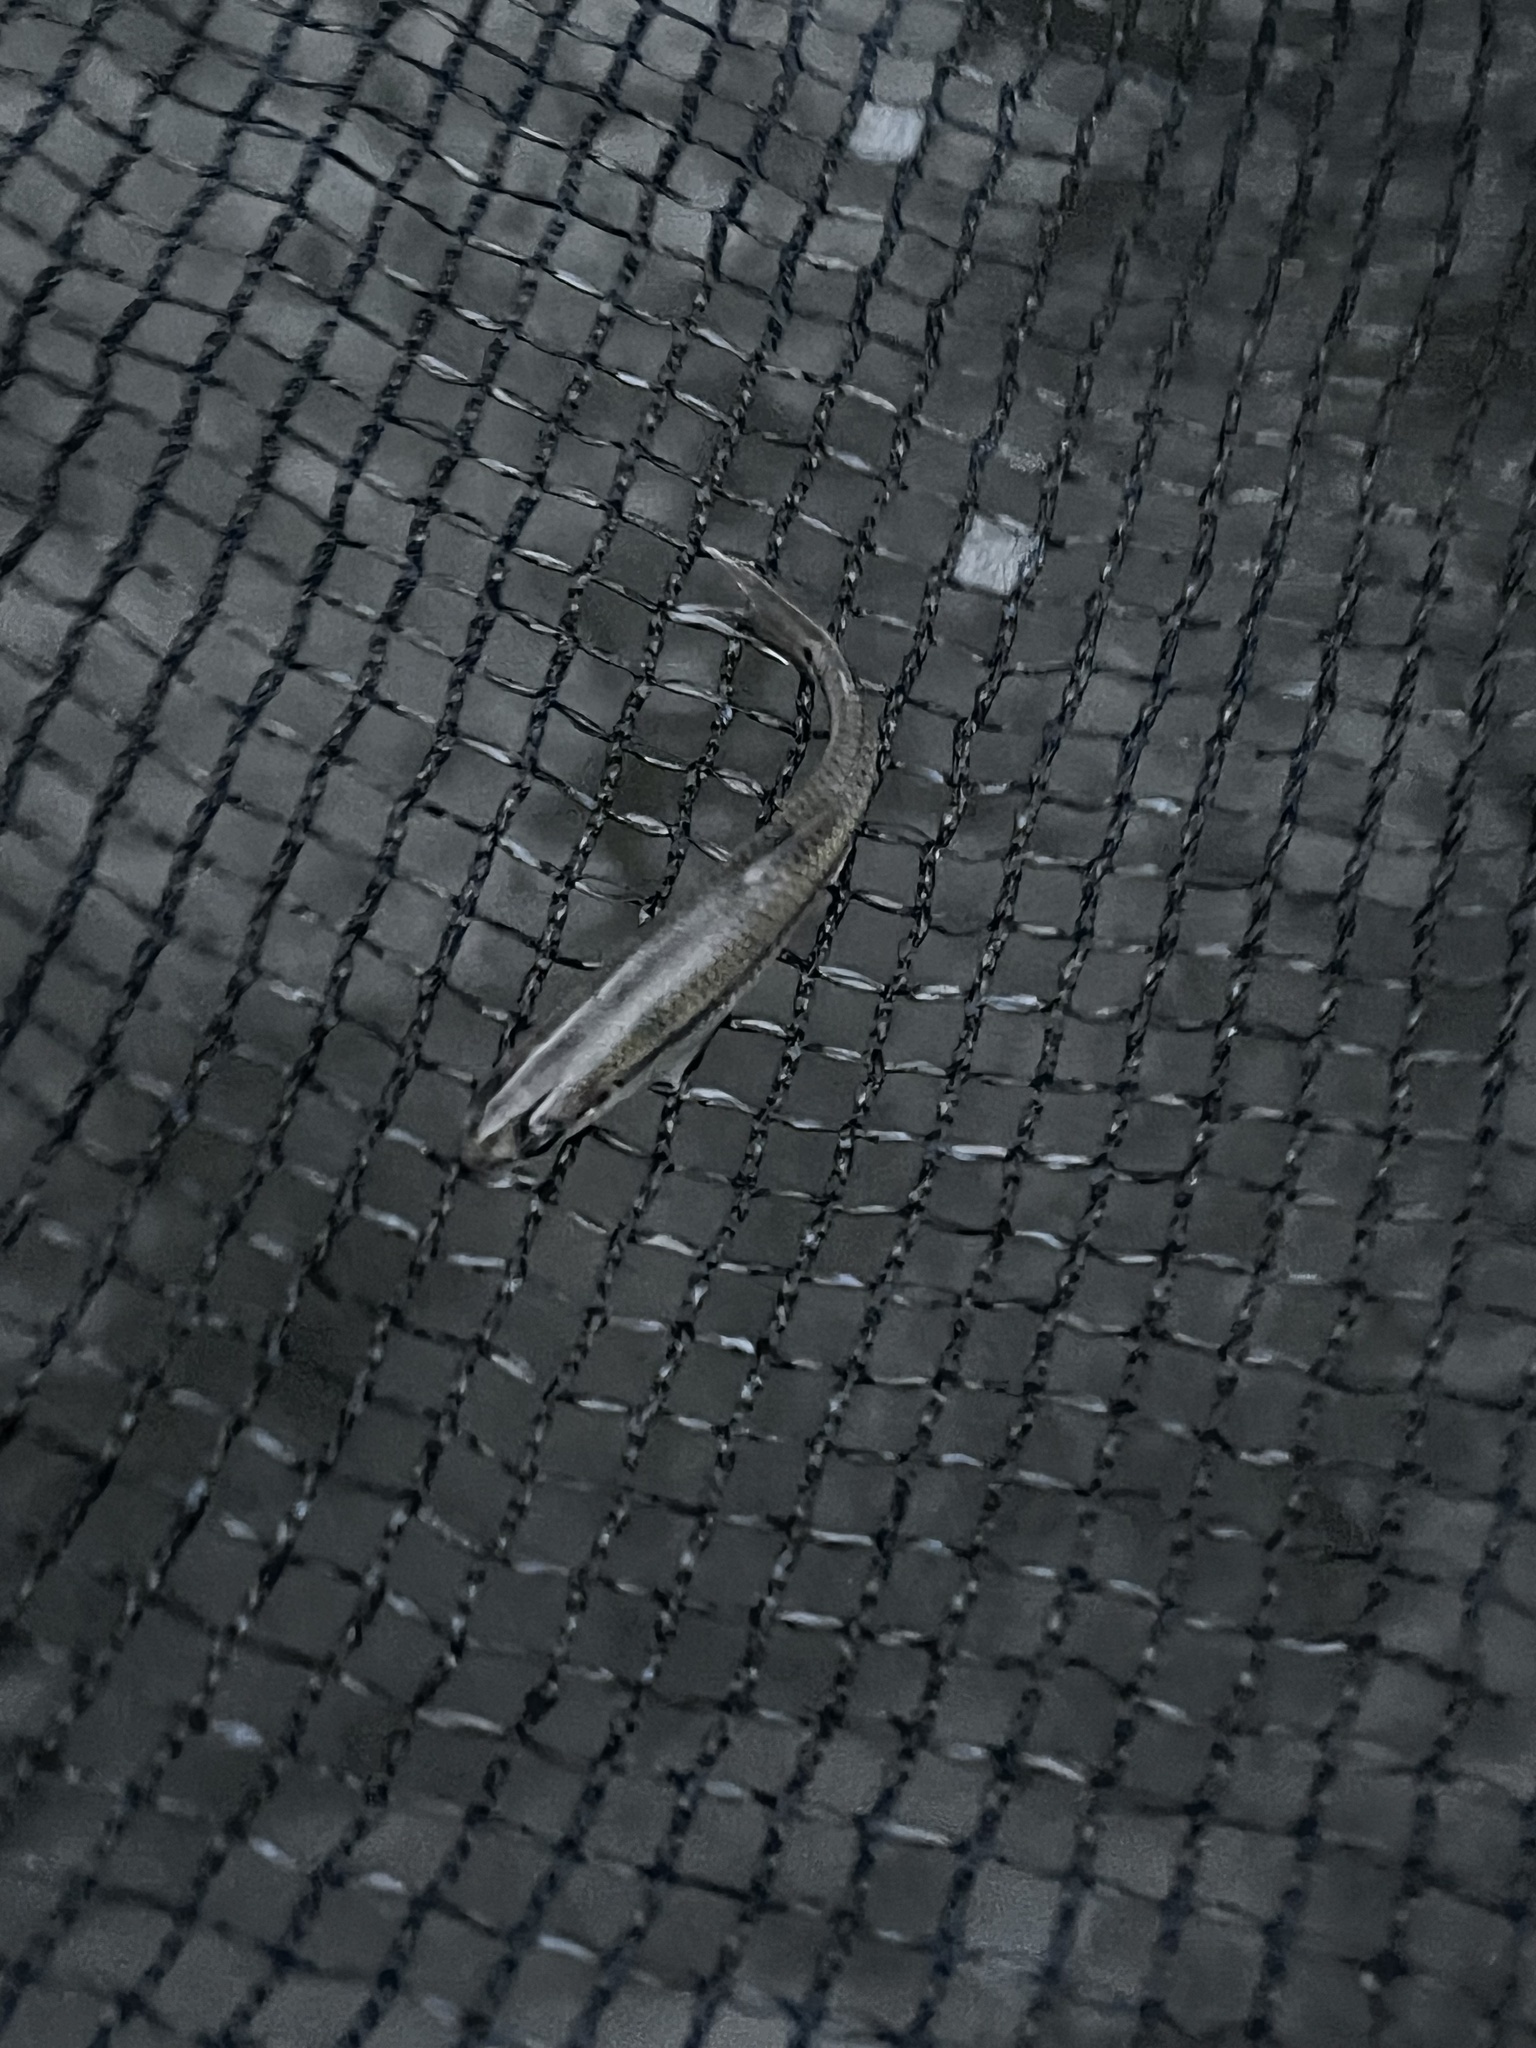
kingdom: Animalia
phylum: Chordata
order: Cypriniformes
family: Cyprinidae
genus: Pimephales
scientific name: Pimephales notatus
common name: Bluntnose minnow
